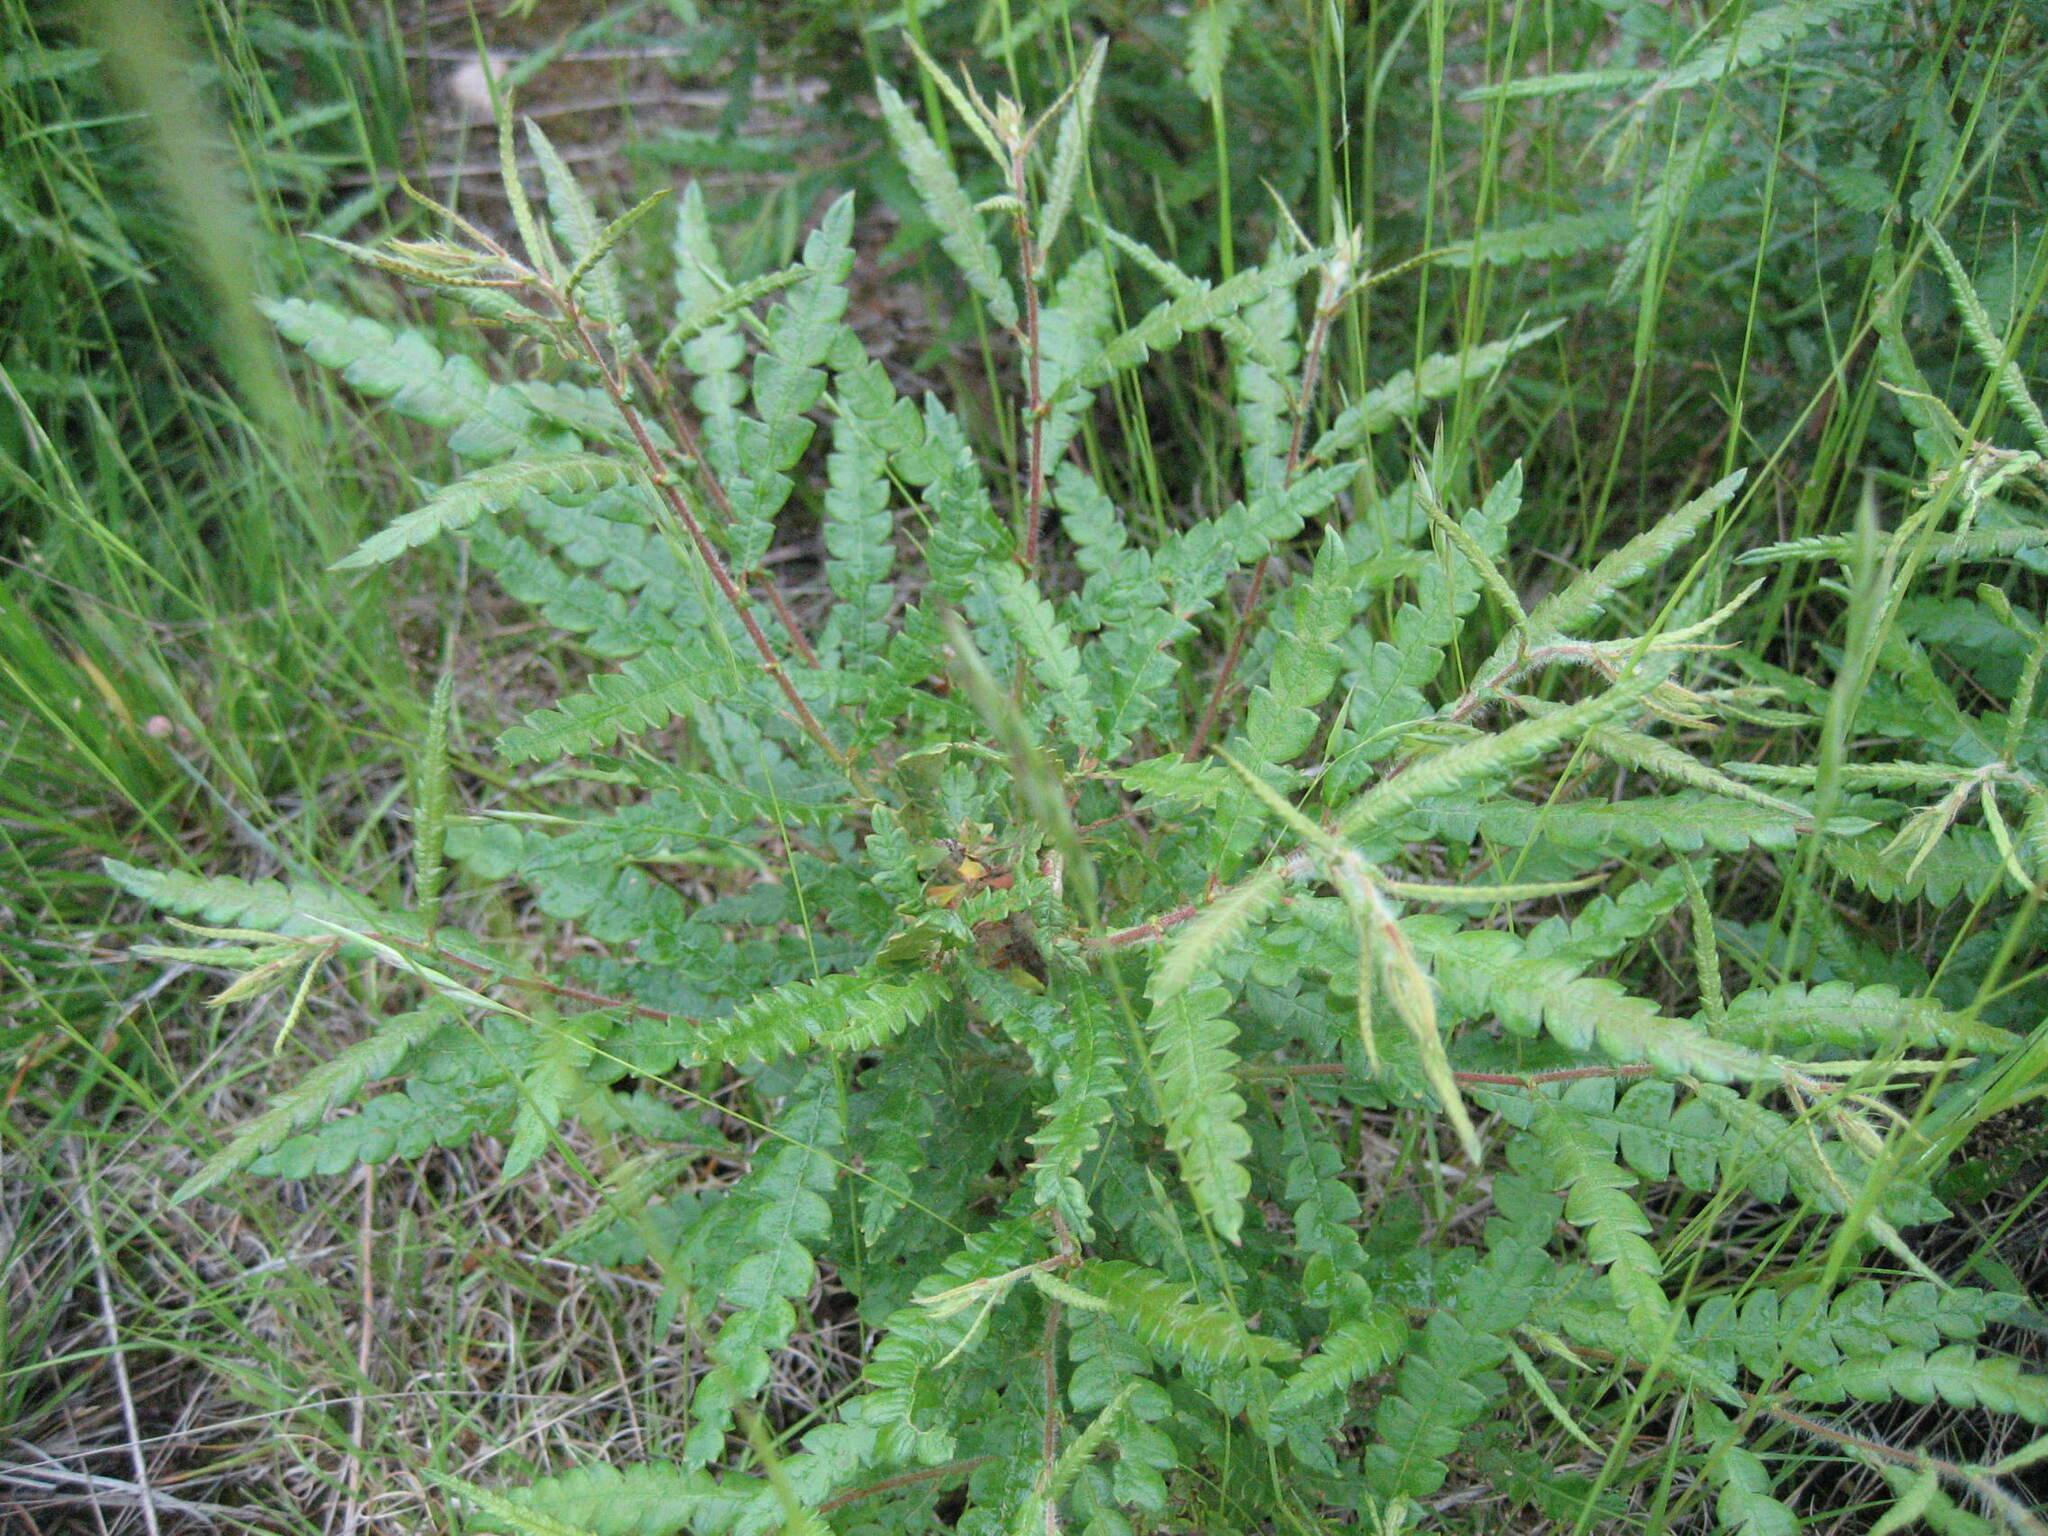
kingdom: Plantae
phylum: Tracheophyta
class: Magnoliopsida
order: Fagales
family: Myricaceae
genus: Comptonia
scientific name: Comptonia peregrina
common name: Sweet-fern
